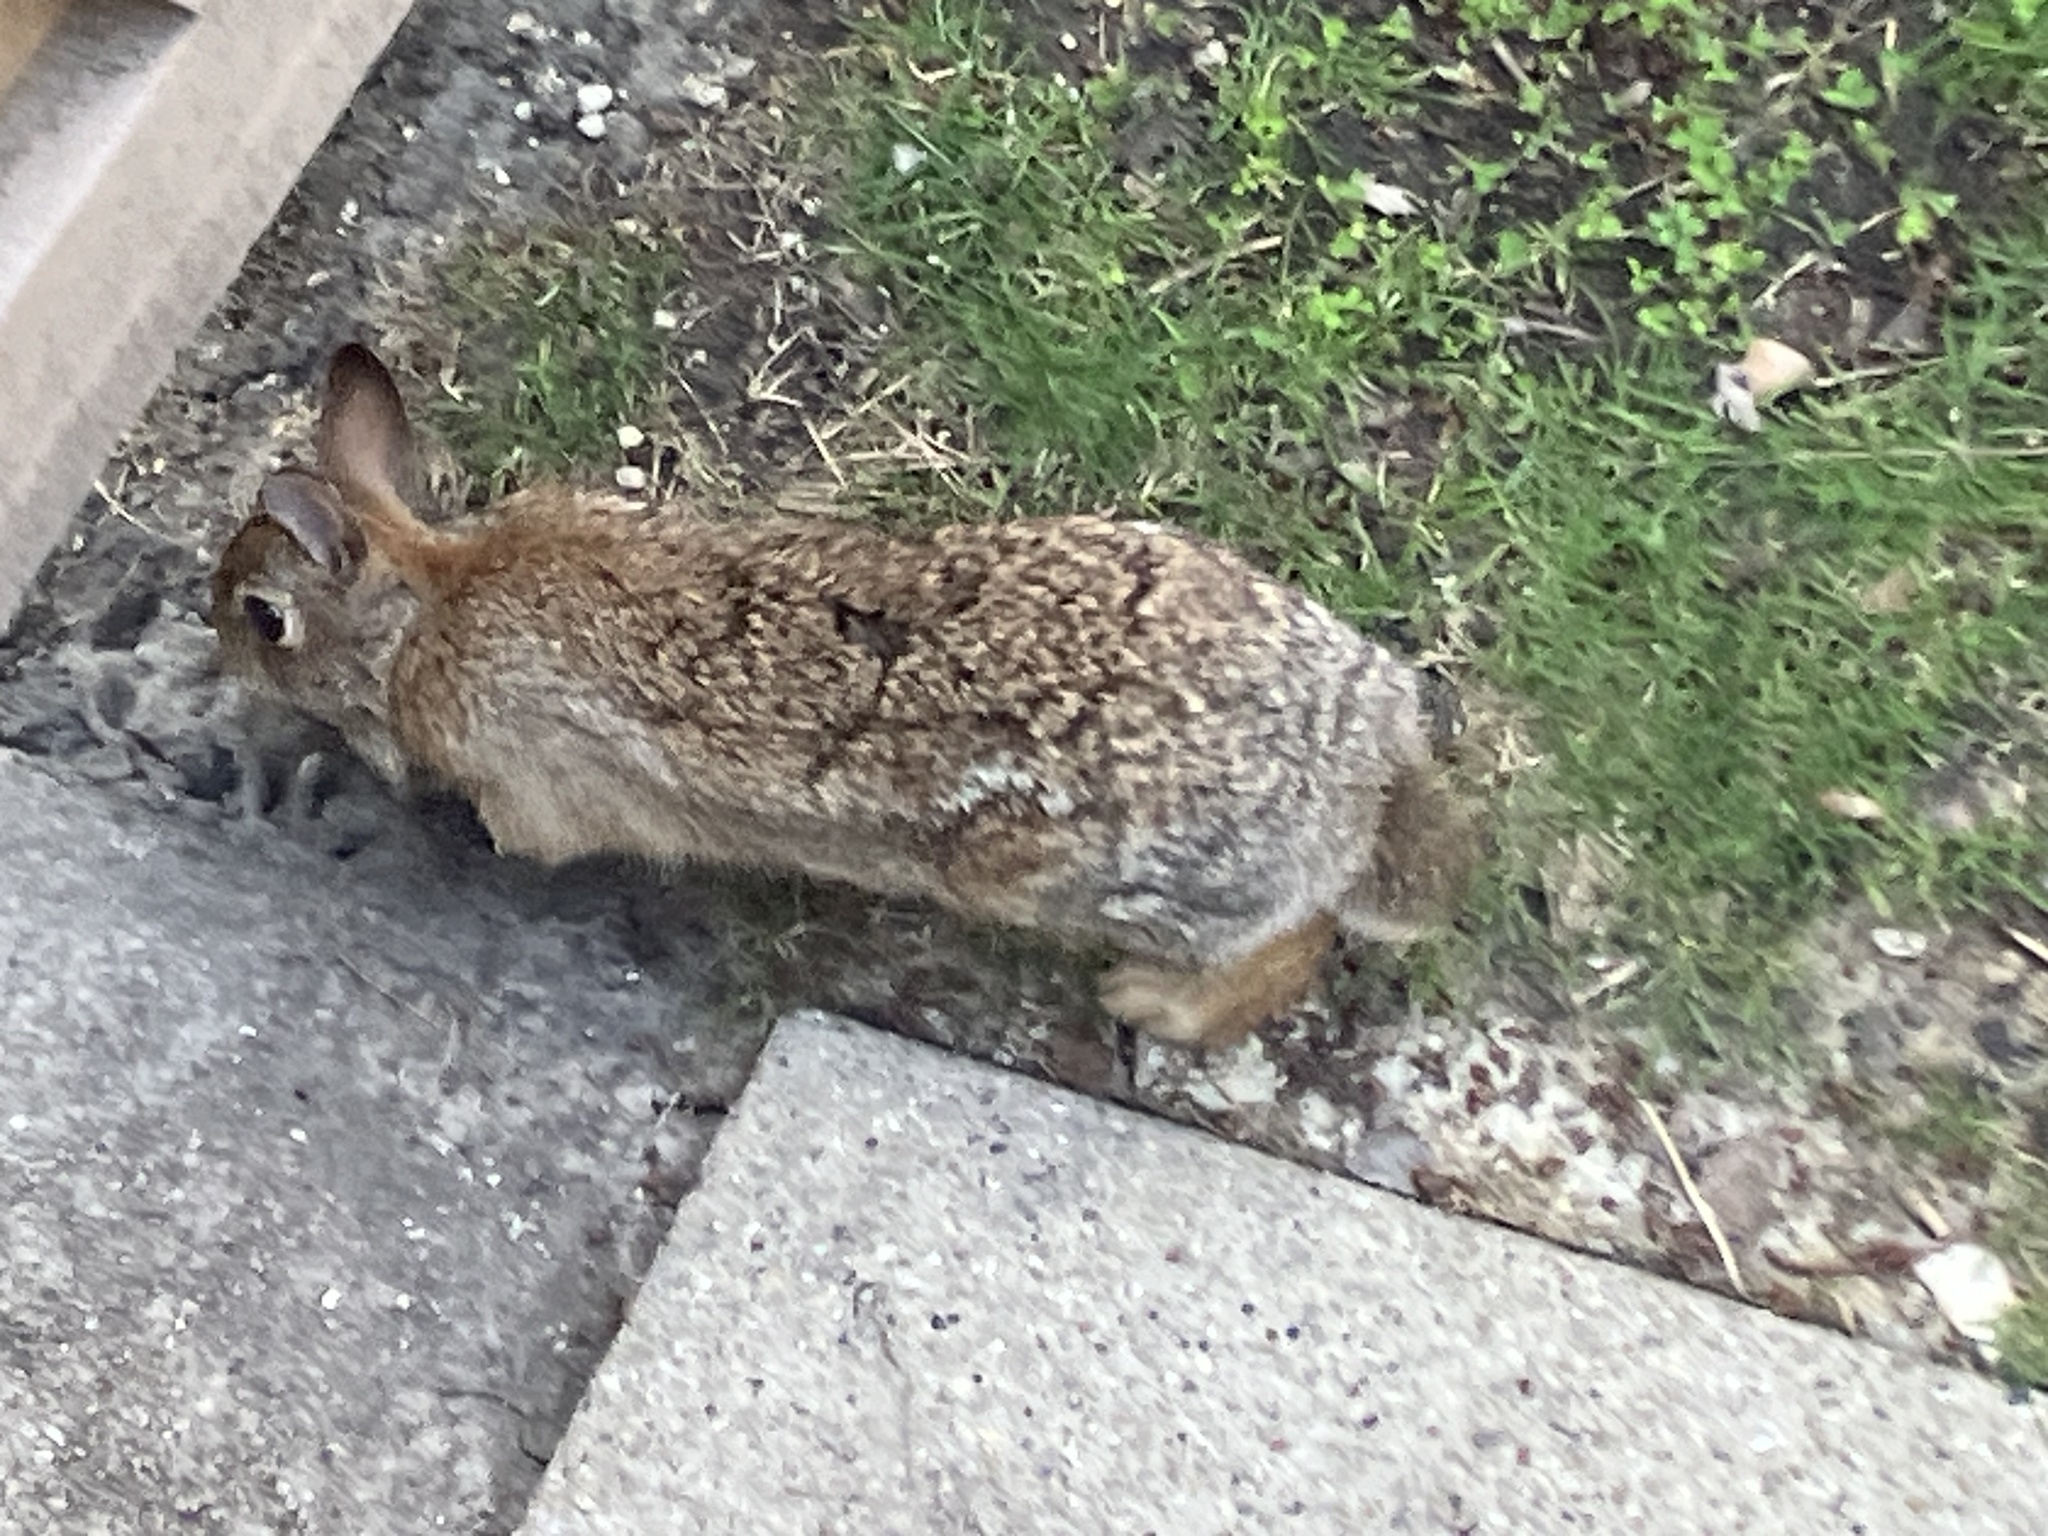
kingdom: Animalia
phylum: Chordata
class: Mammalia
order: Lagomorpha
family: Leporidae
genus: Sylvilagus
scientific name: Sylvilagus floridanus
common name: Eastern cottontail
